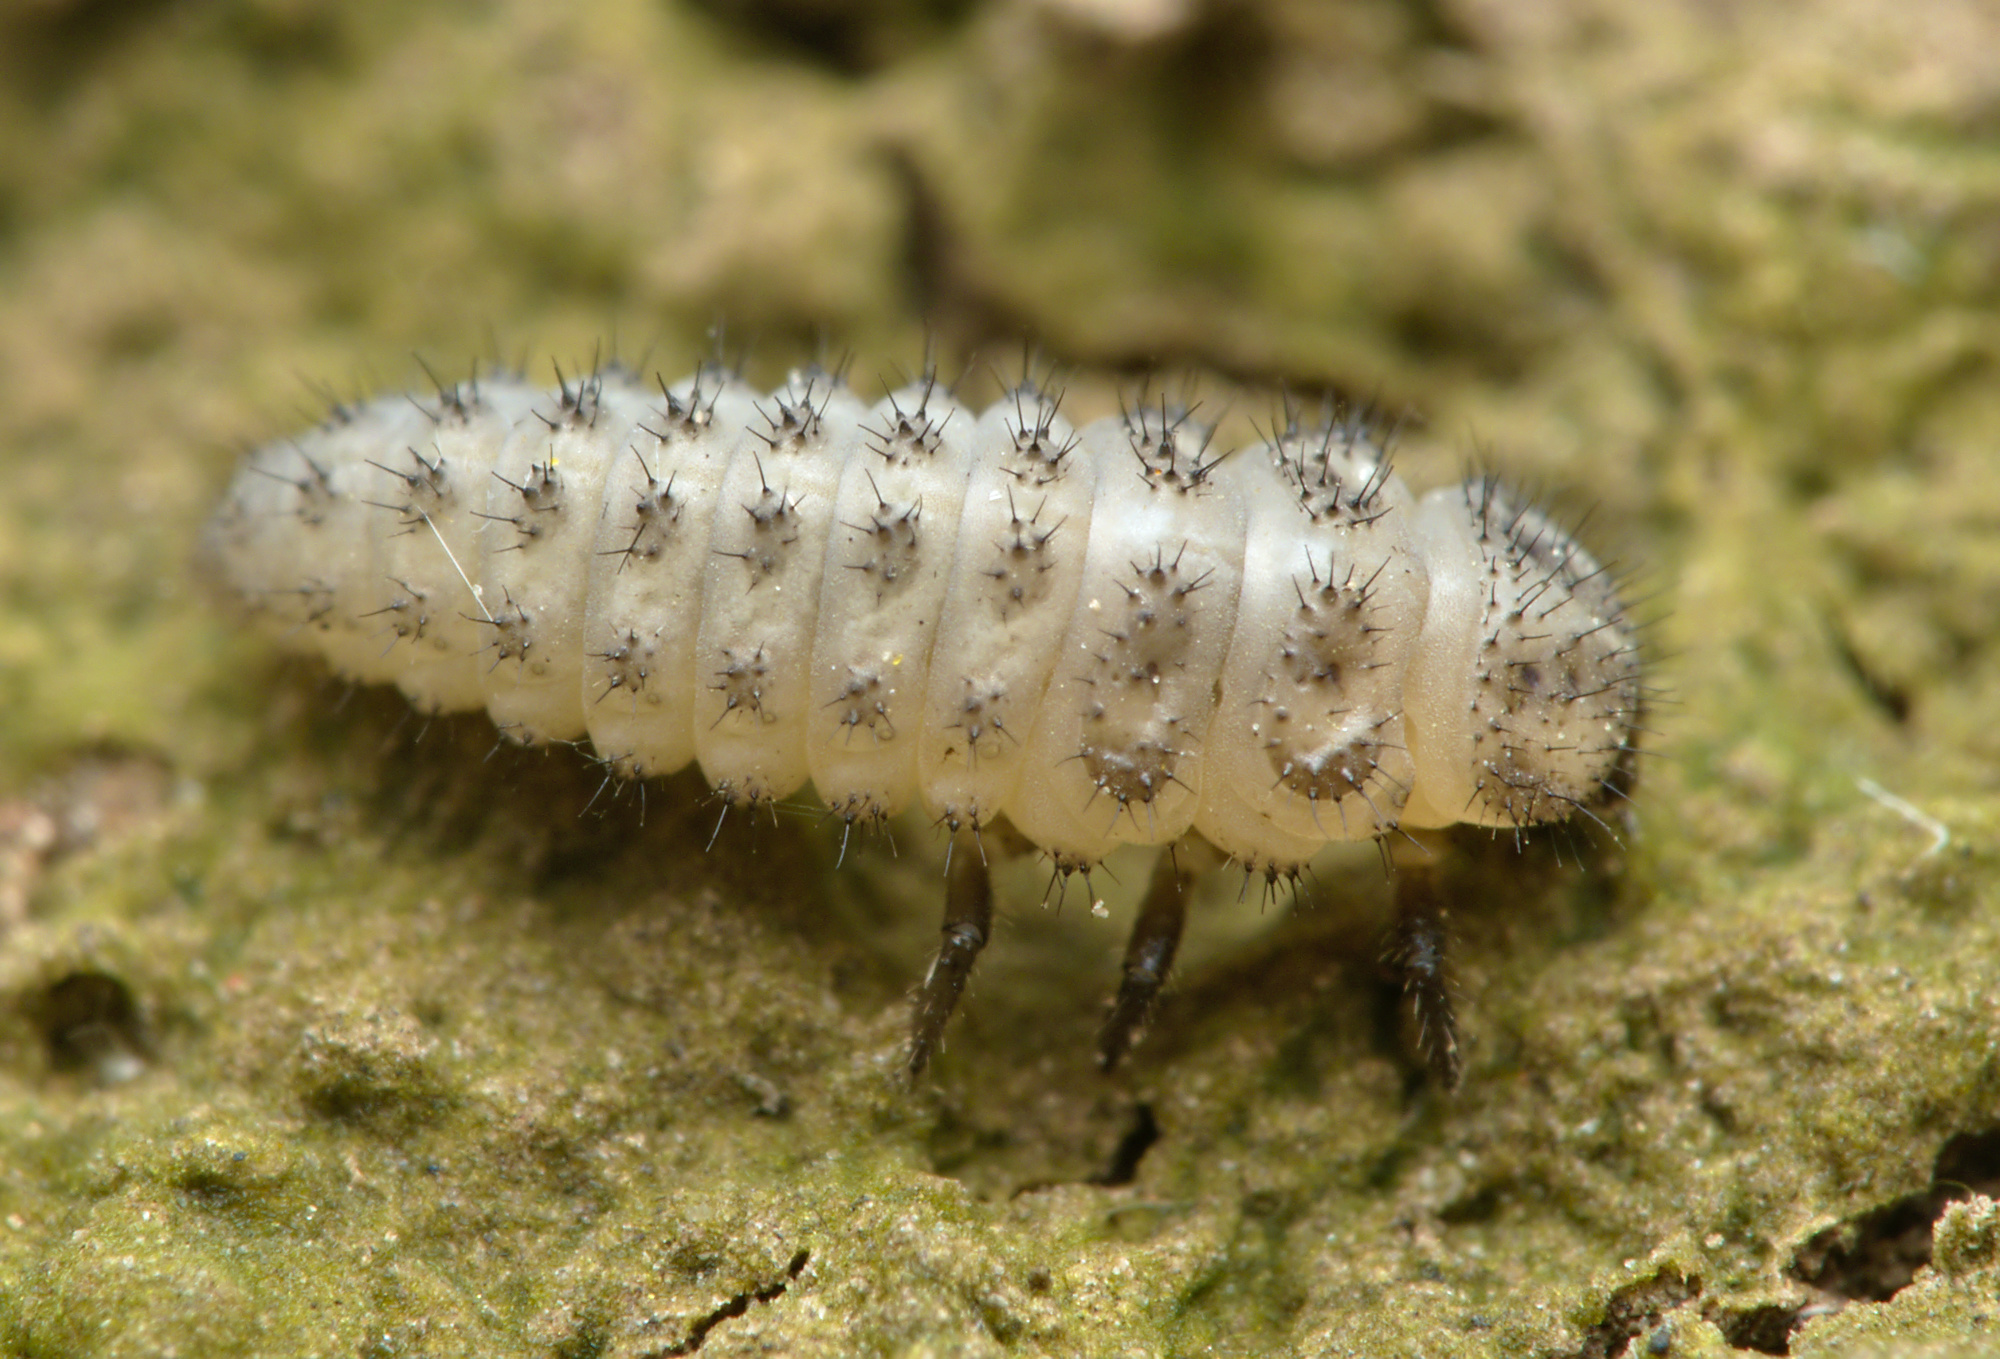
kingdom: Animalia
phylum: Arthropoda
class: Insecta
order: Coleoptera
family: Coccinellidae
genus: Tytthaspis
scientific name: Tytthaspis sedecimpunctata
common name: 16-spot ladybird
